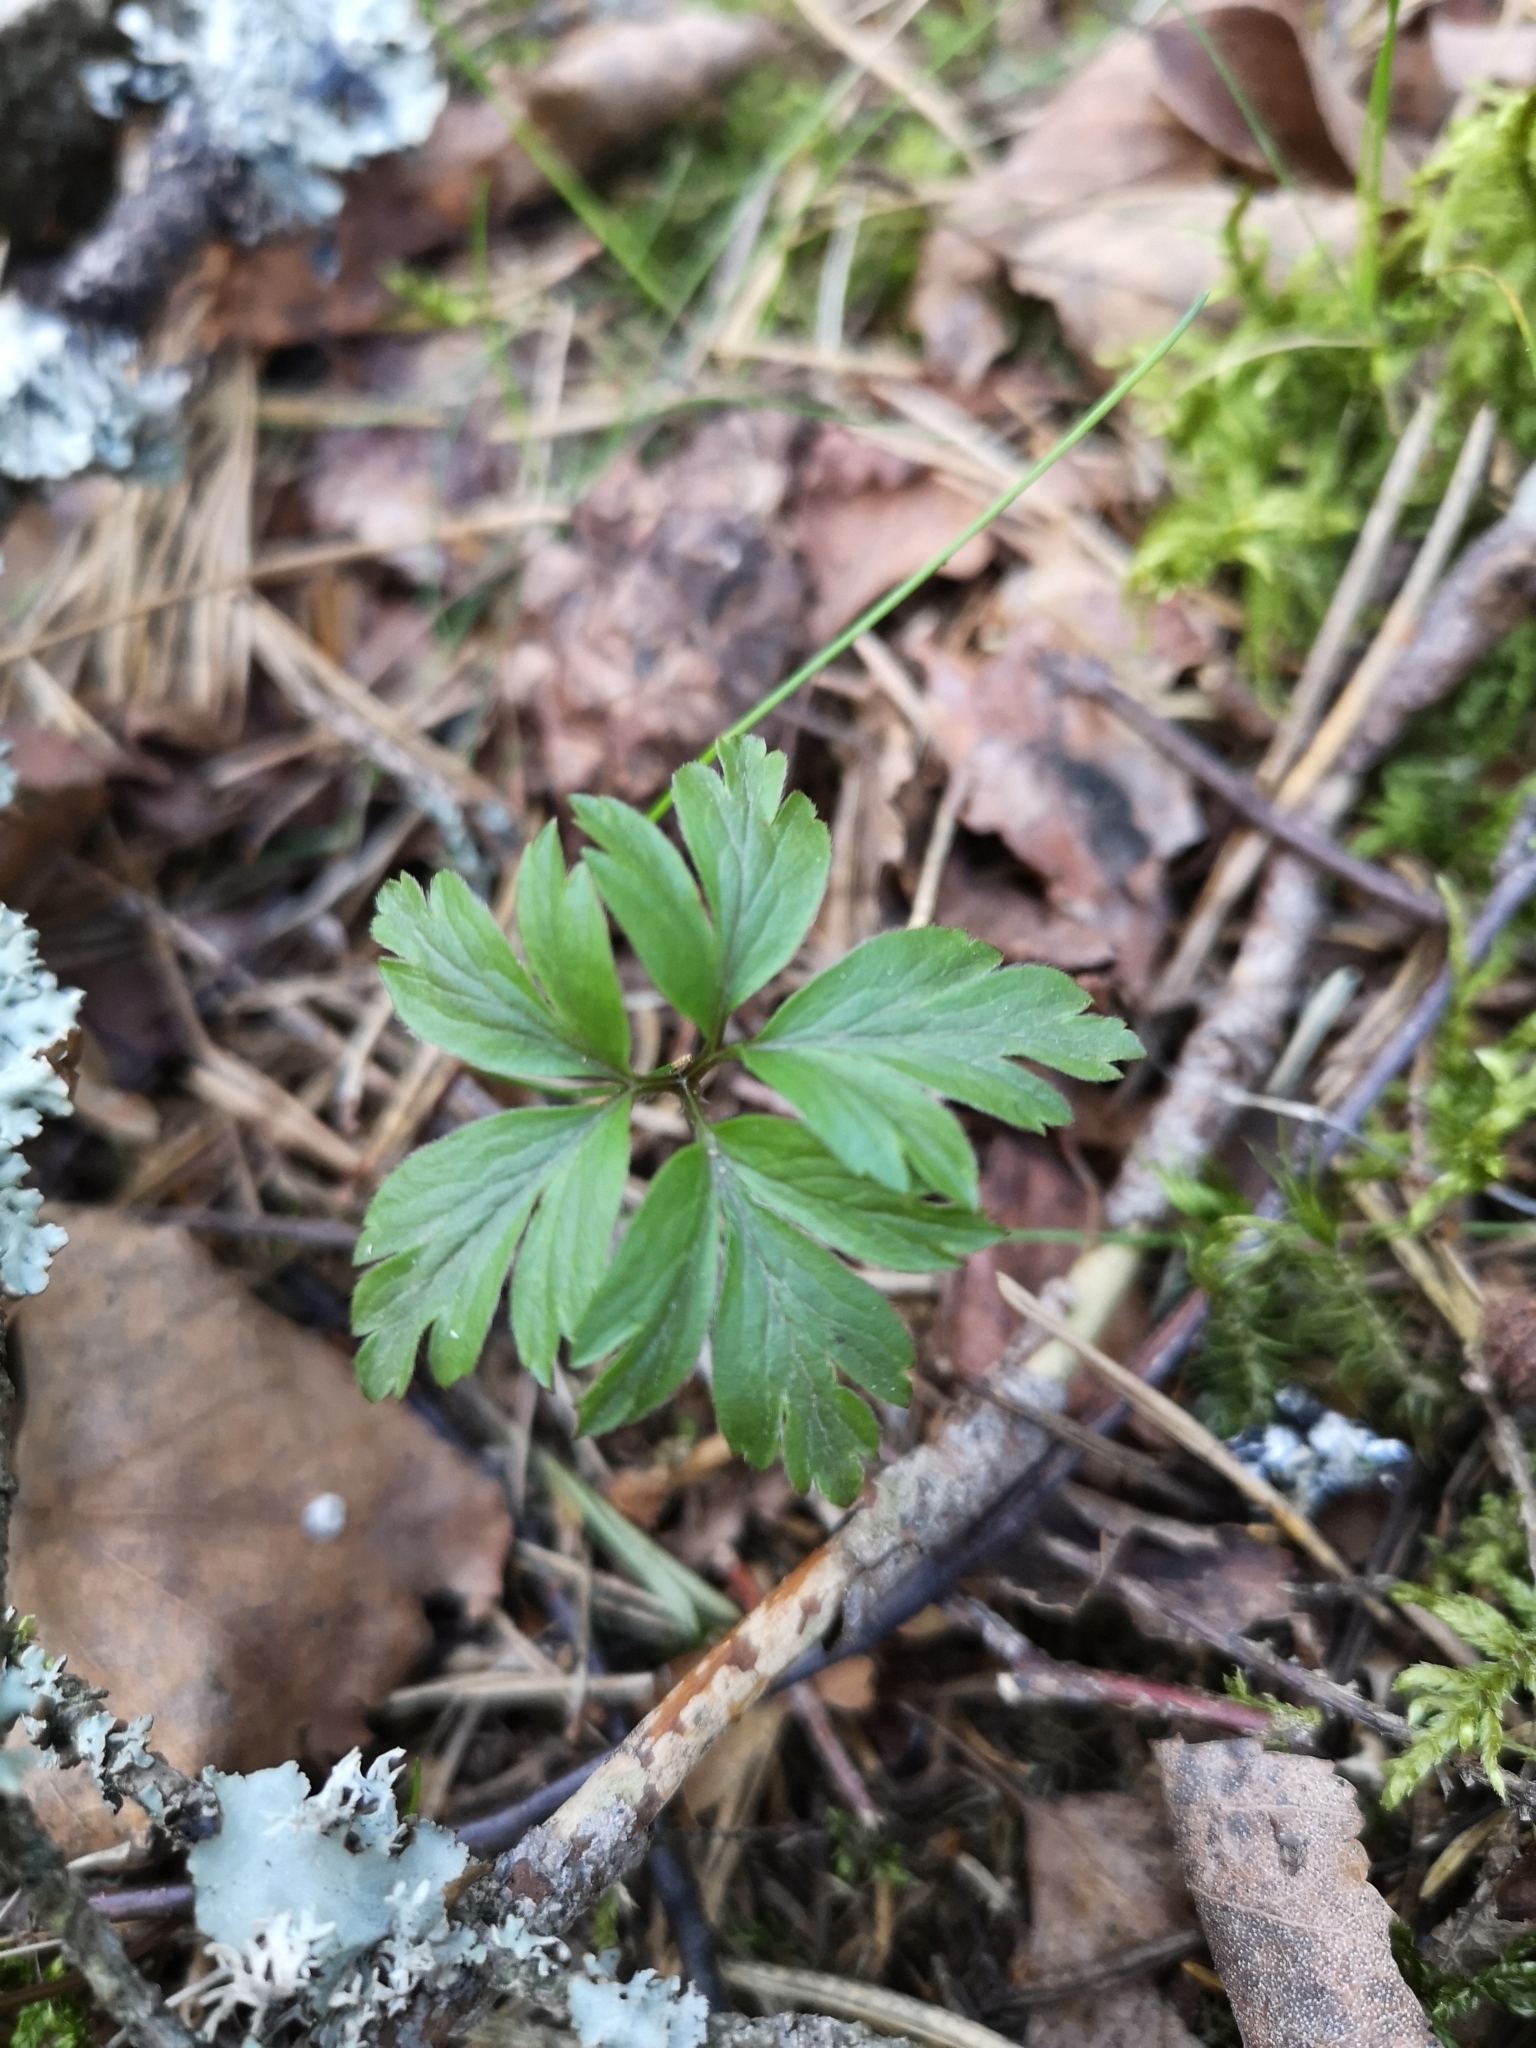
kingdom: Plantae
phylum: Tracheophyta
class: Magnoliopsida
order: Ranunculales
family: Ranunculaceae
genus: Anemone
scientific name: Anemone nemorosa
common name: Wood anemone
